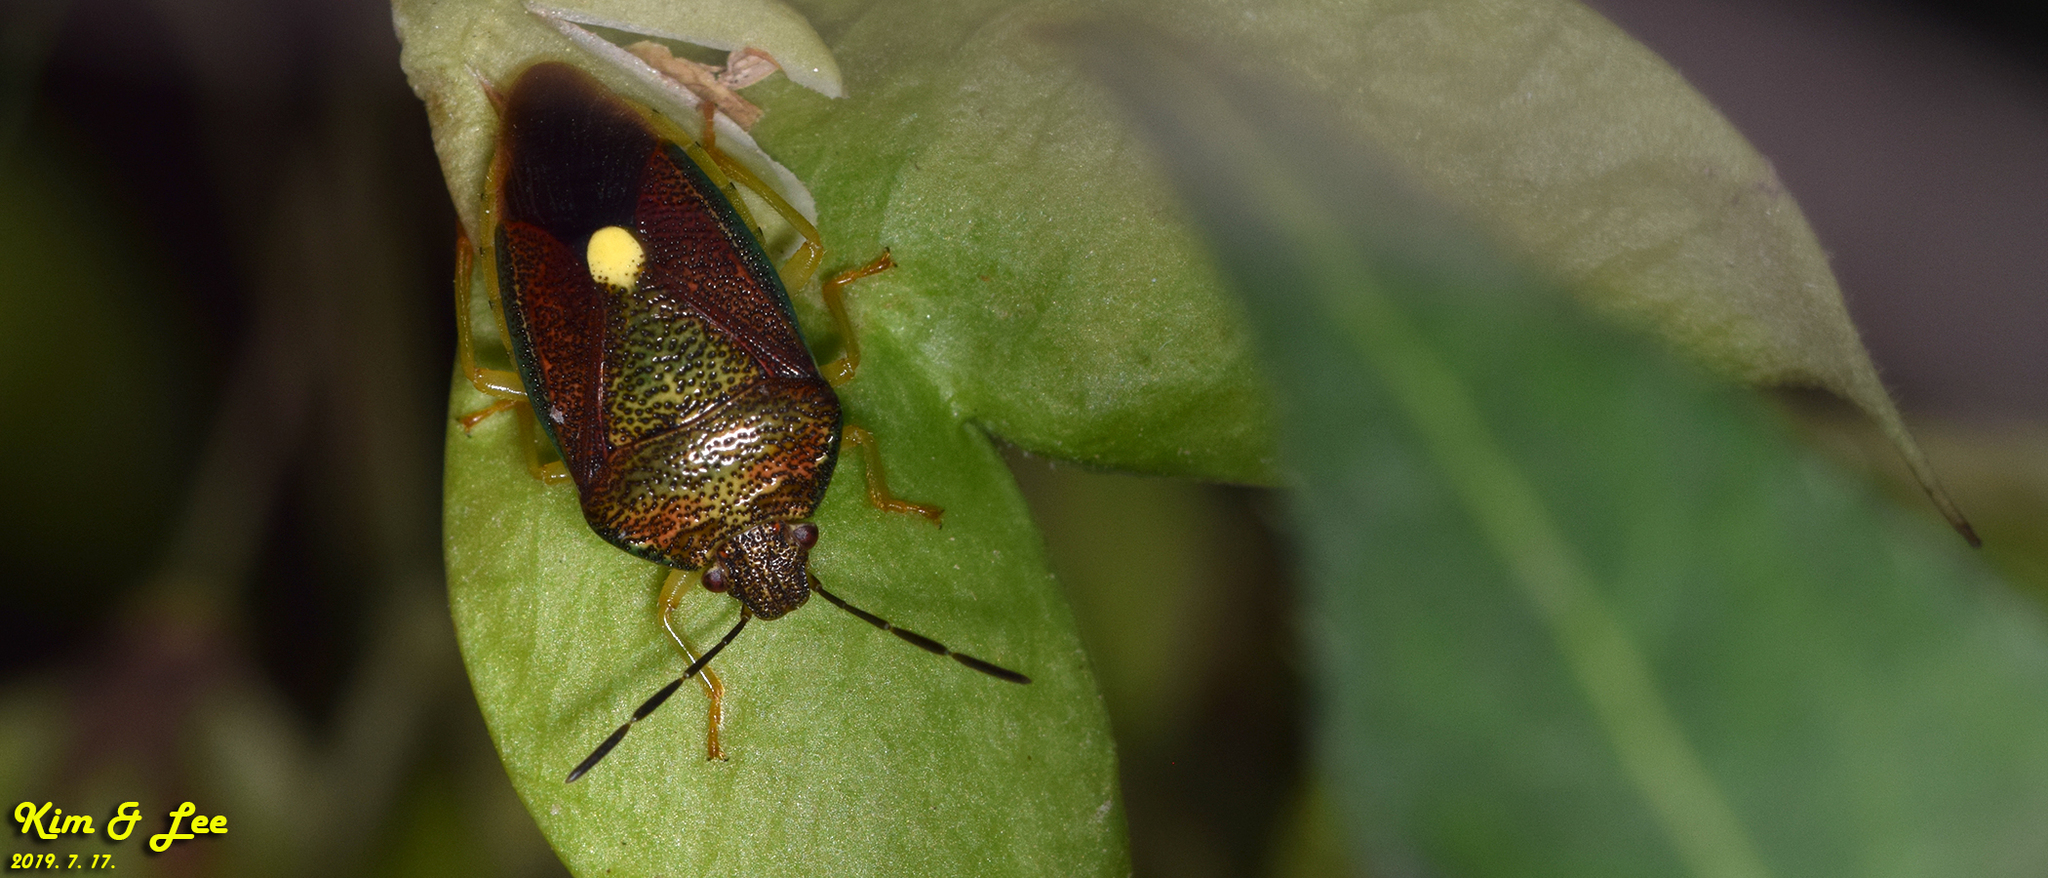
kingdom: Animalia
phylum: Arthropoda
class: Insecta
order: Hemiptera
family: Pentatomidae
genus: Chalazonotum
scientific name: Chalazonotum
